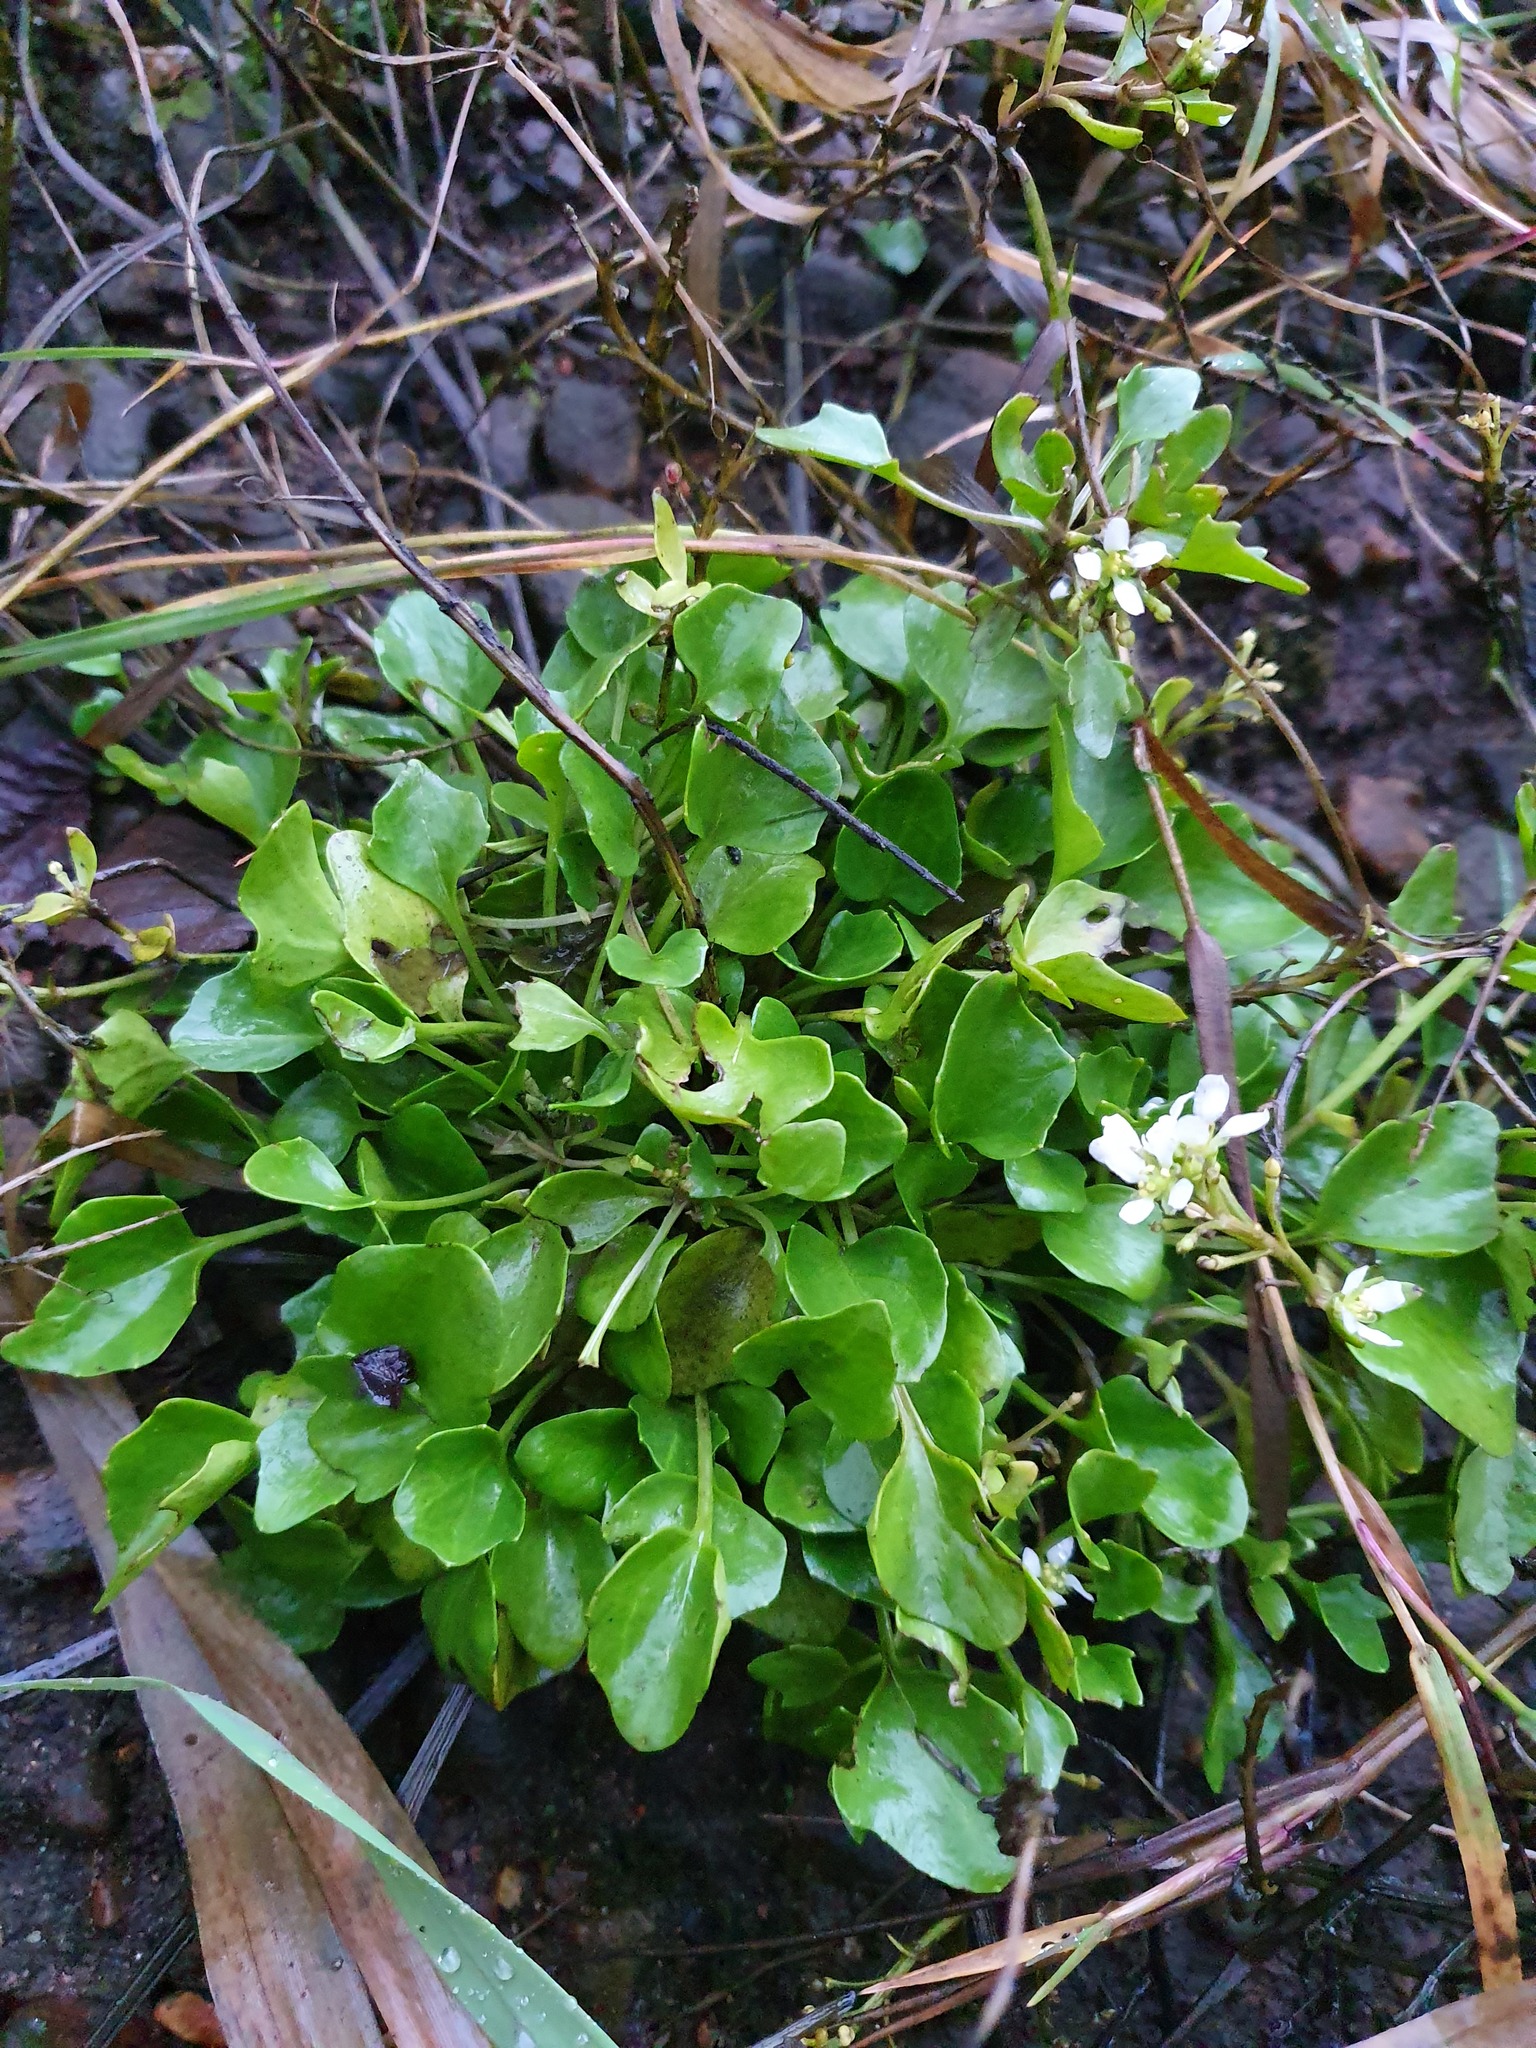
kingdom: Plantae
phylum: Tracheophyta
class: Magnoliopsida
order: Brassicales
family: Brassicaceae
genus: Cochlearia
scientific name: Cochlearia officinalis
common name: Scurvy-grass
